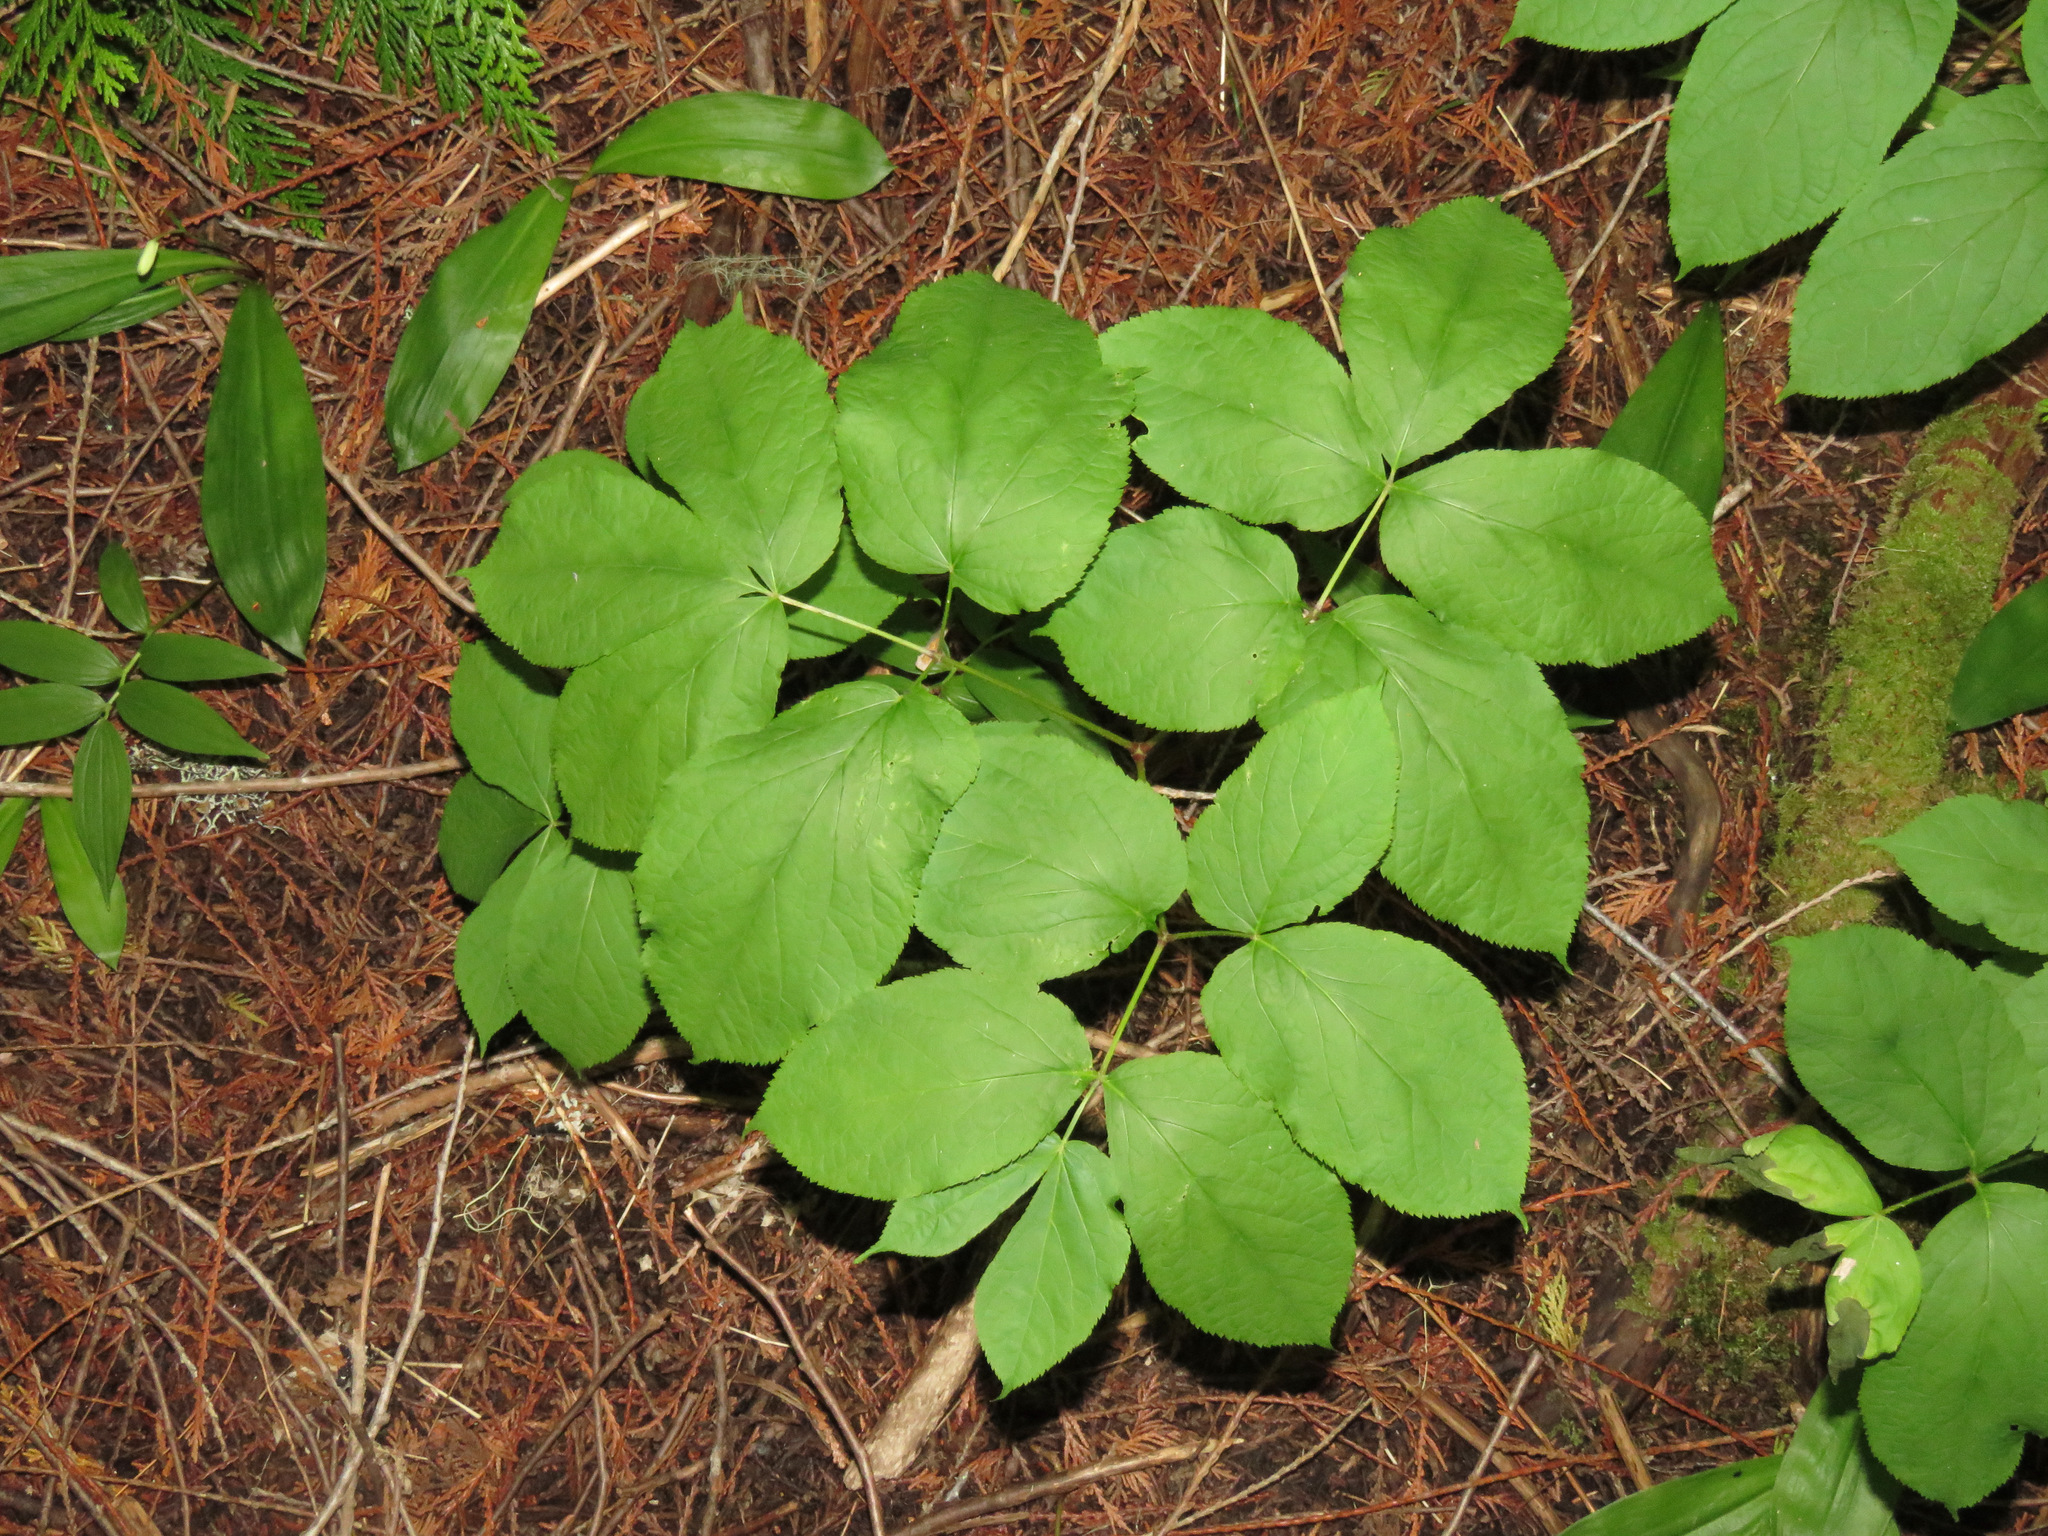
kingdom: Plantae
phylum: Tracheophyta
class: Magnoliopsida
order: Apiales
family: Araliaceae
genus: Aralia
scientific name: Aralia nudicaulis
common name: Wild sarsaparilla
